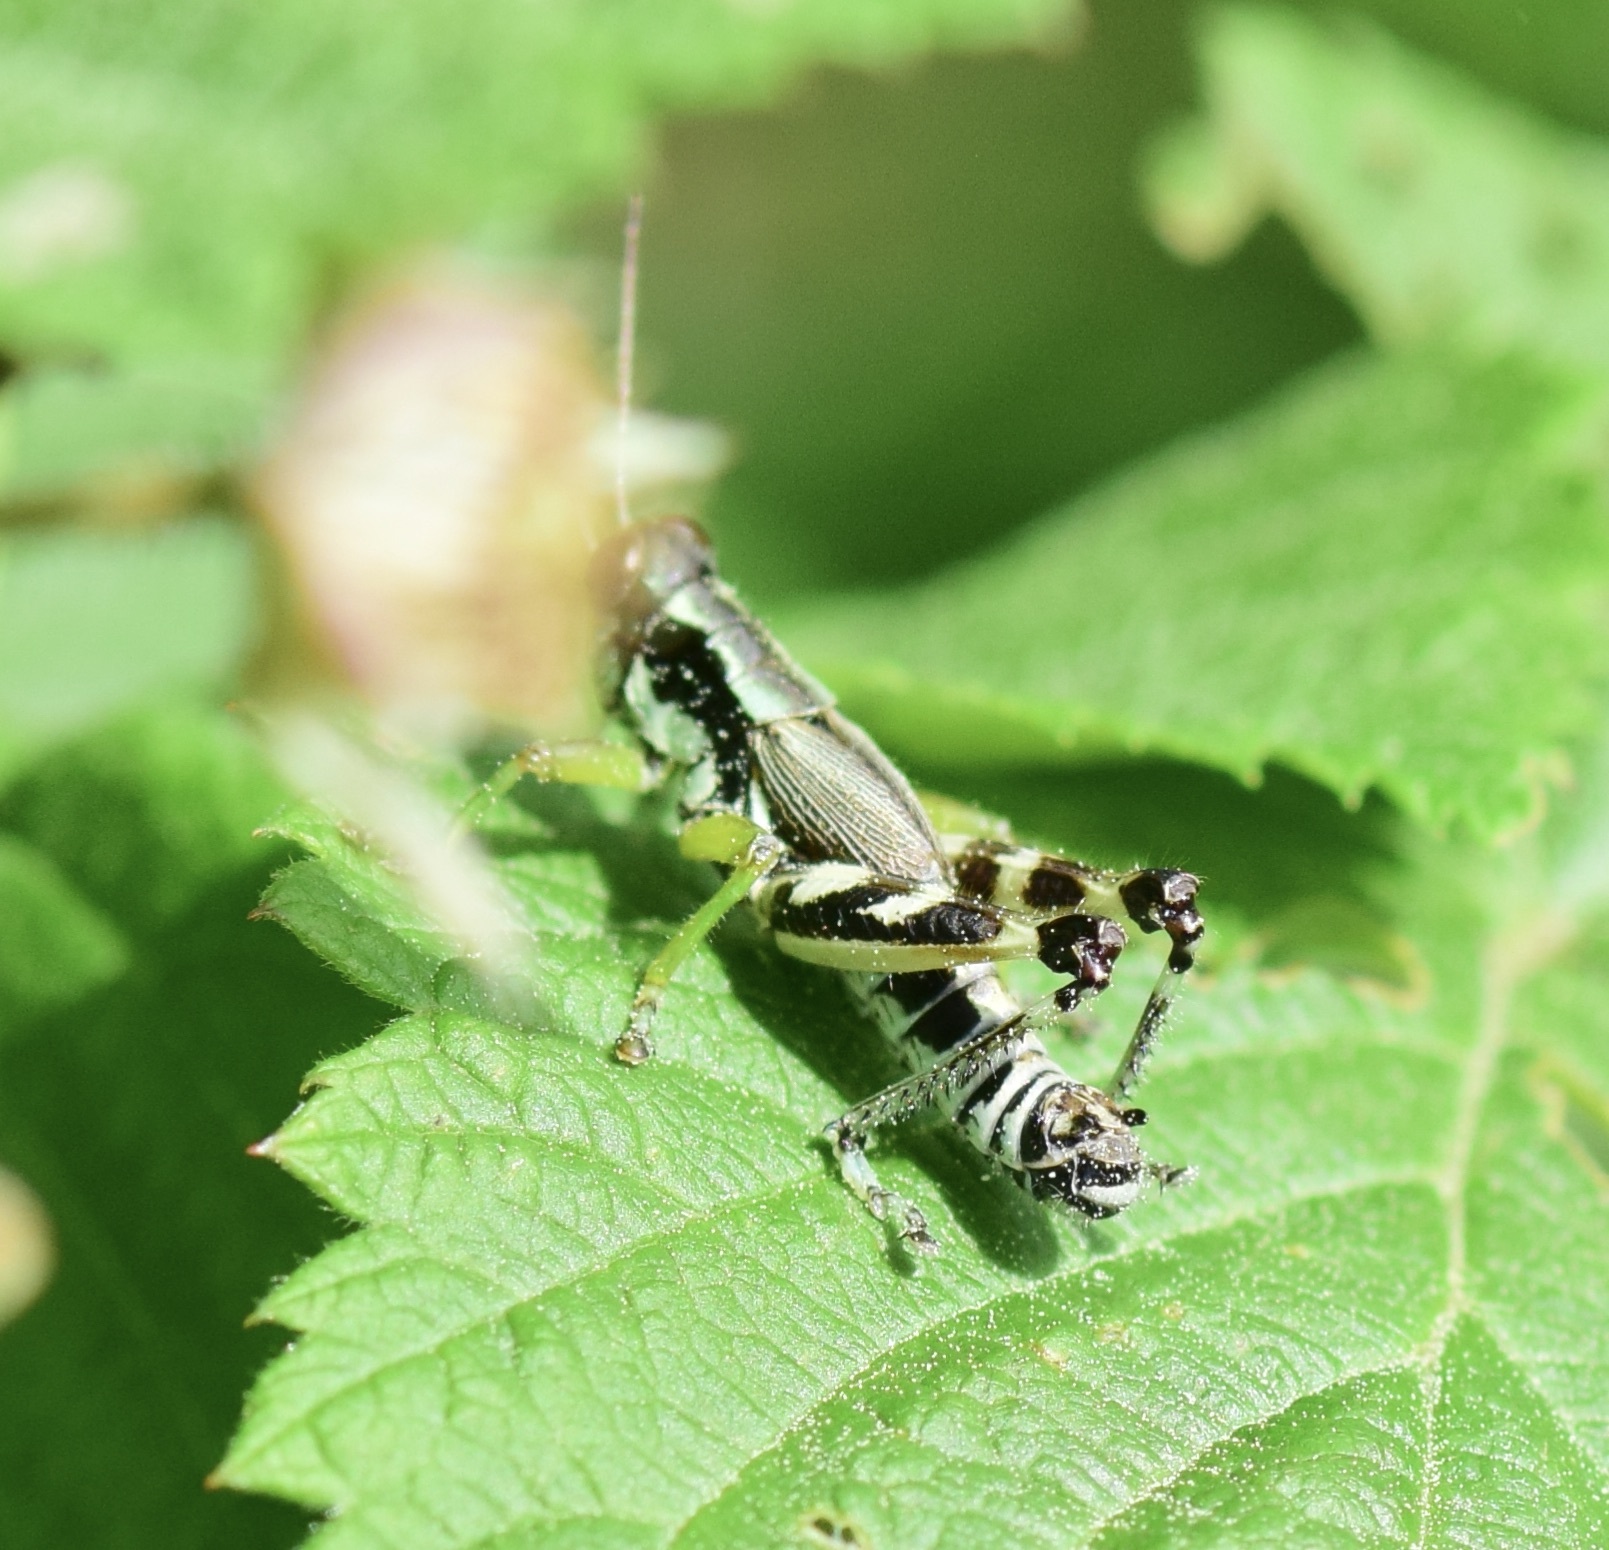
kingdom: Animalia
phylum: Arthropoda
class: Insecta
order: Orthoptera
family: Acrididae
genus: Melanoplus
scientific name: Melanoplus viridipes
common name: Green-legged locust
